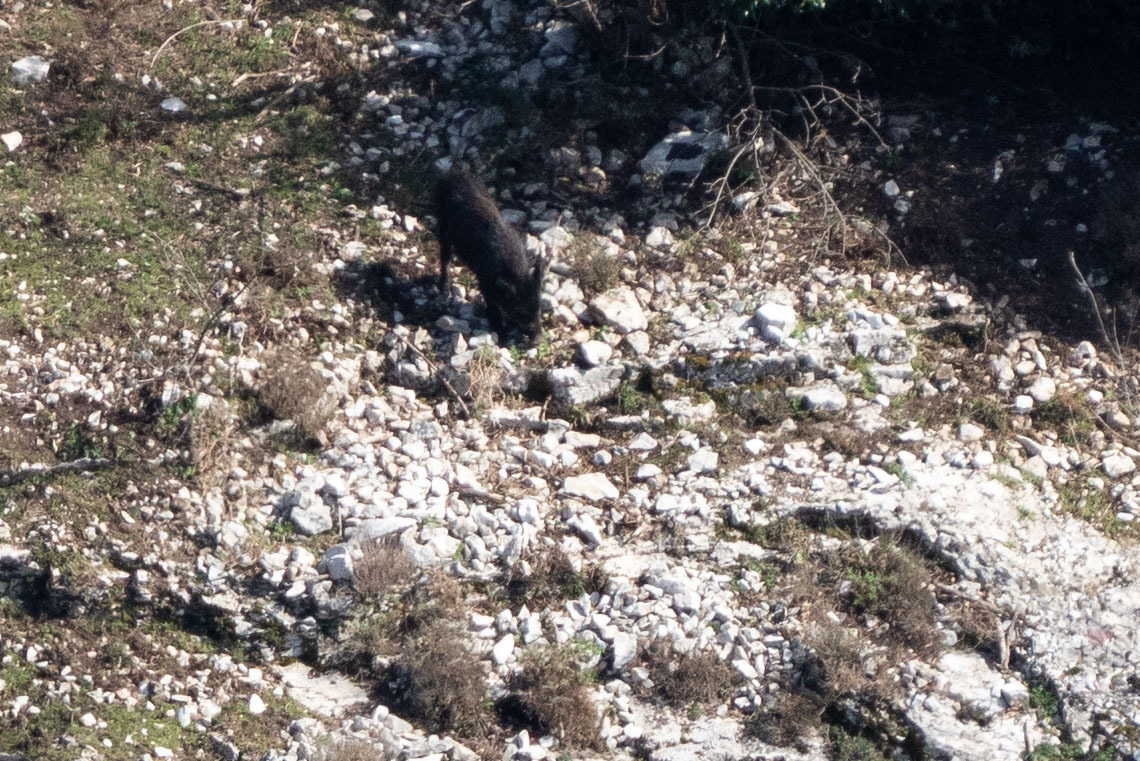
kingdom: Animalia
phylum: Chordata
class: Mammalia
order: Artiodactyla
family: Suidae
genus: Sus
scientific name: Sus scrofa
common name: Wild boar
